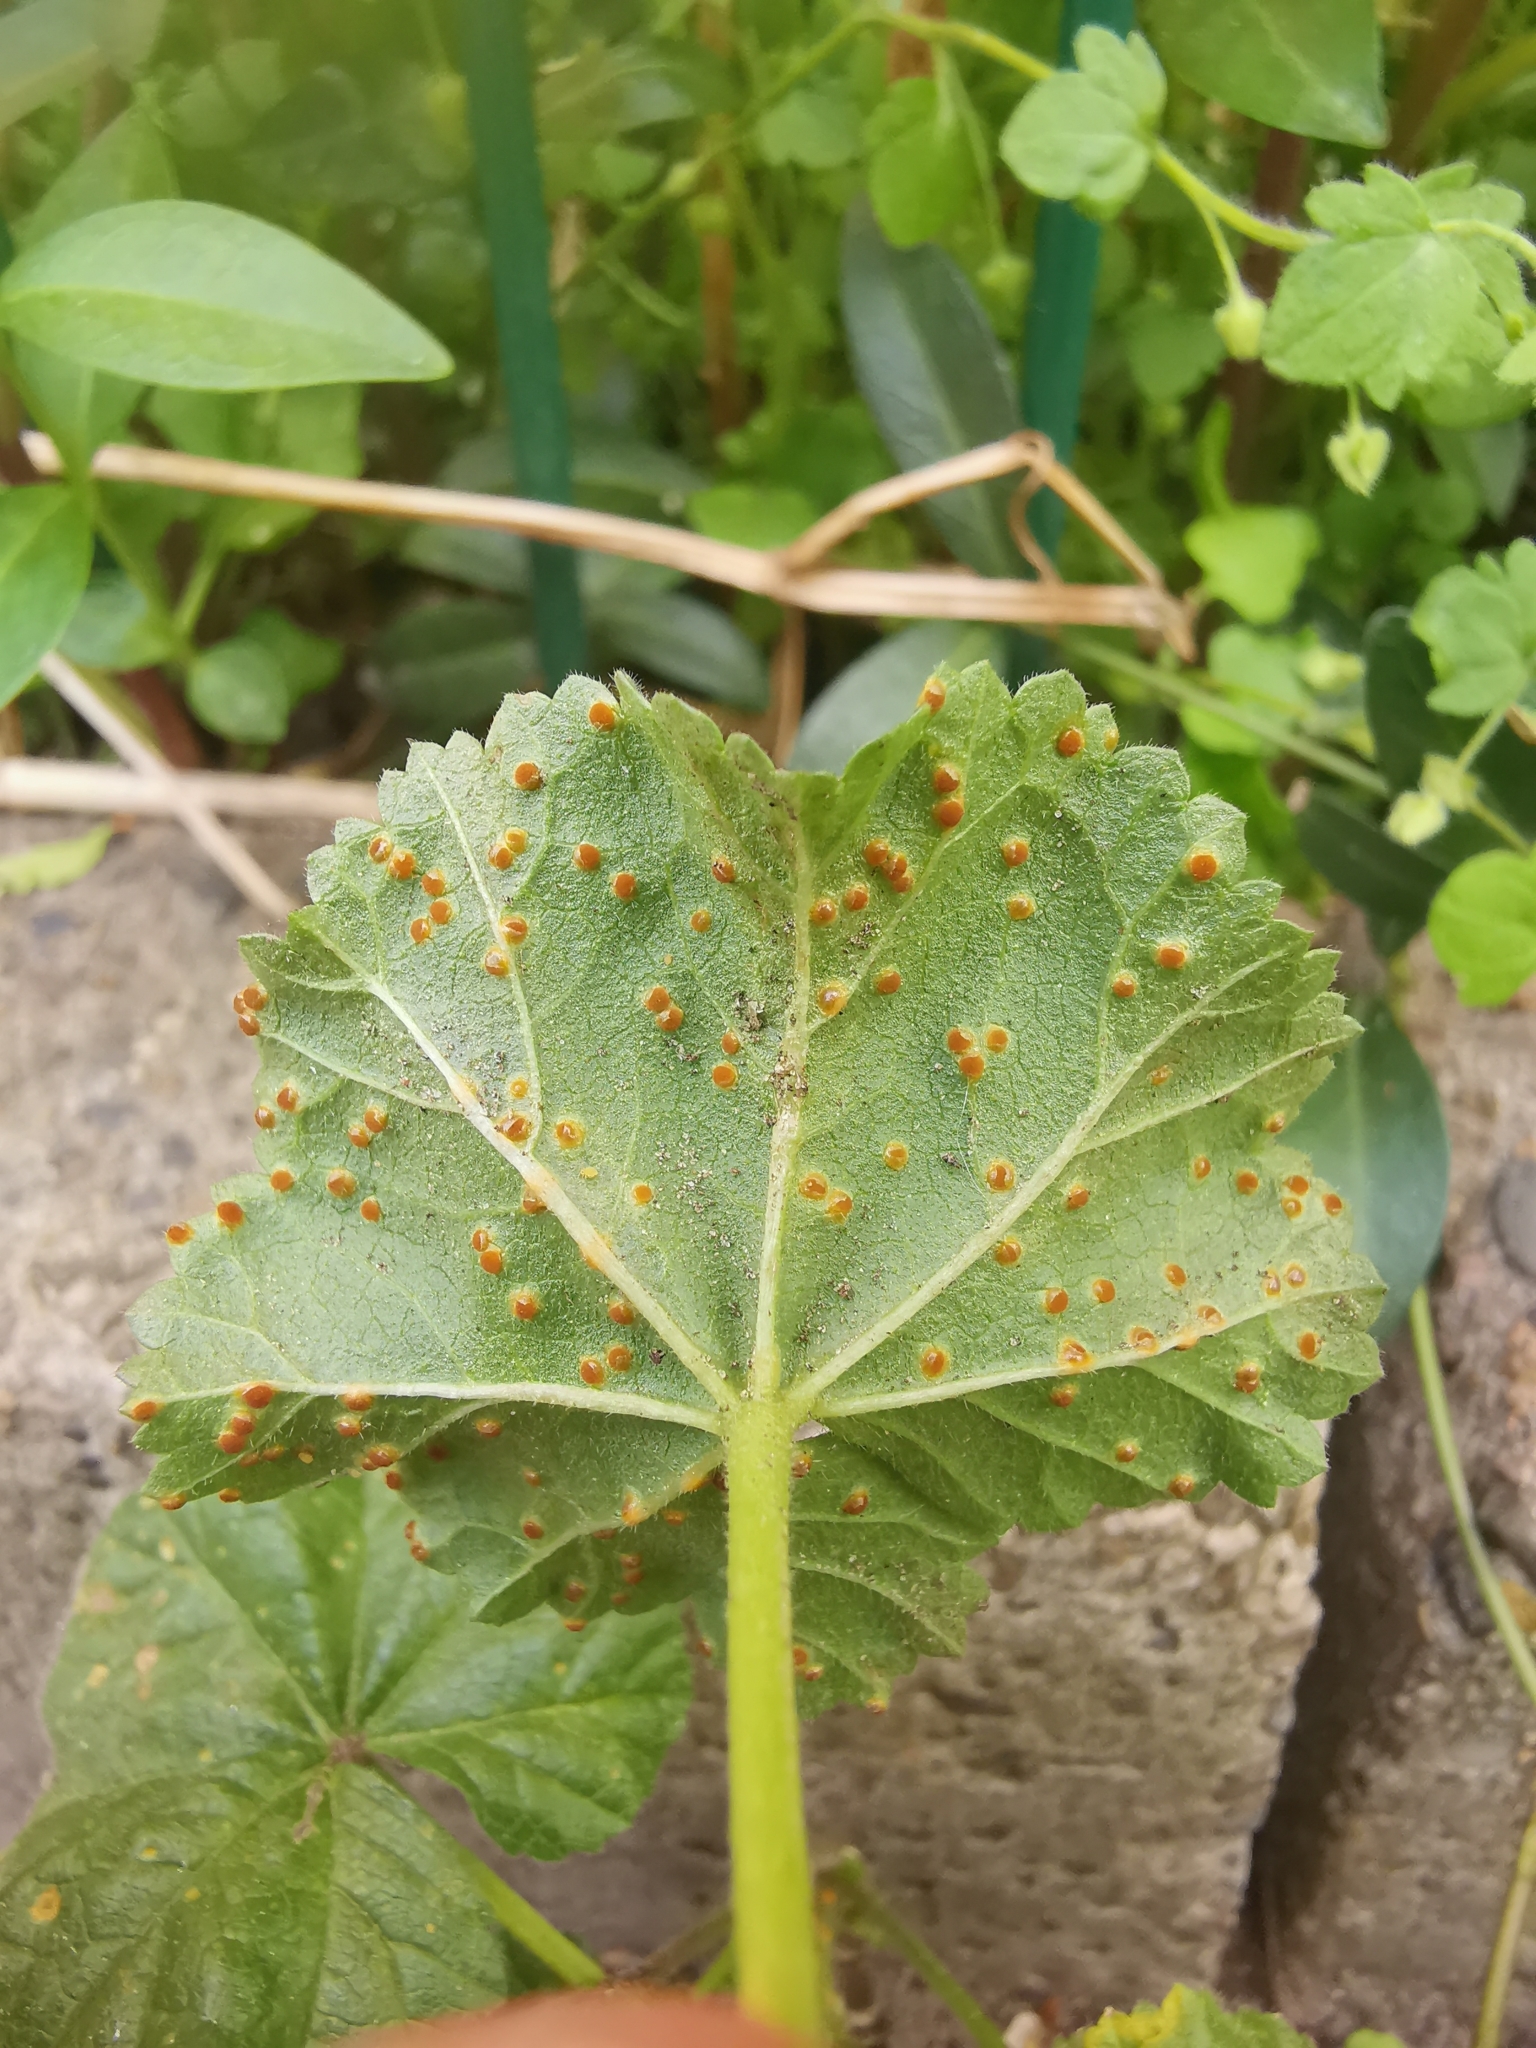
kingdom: Fungi
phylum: Basidiomycota
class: Pucciniomycetes
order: Pucciniales
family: Pucciniaceae
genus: Puccinia
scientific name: Puccinia malvacearum
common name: Hollyhock rust
